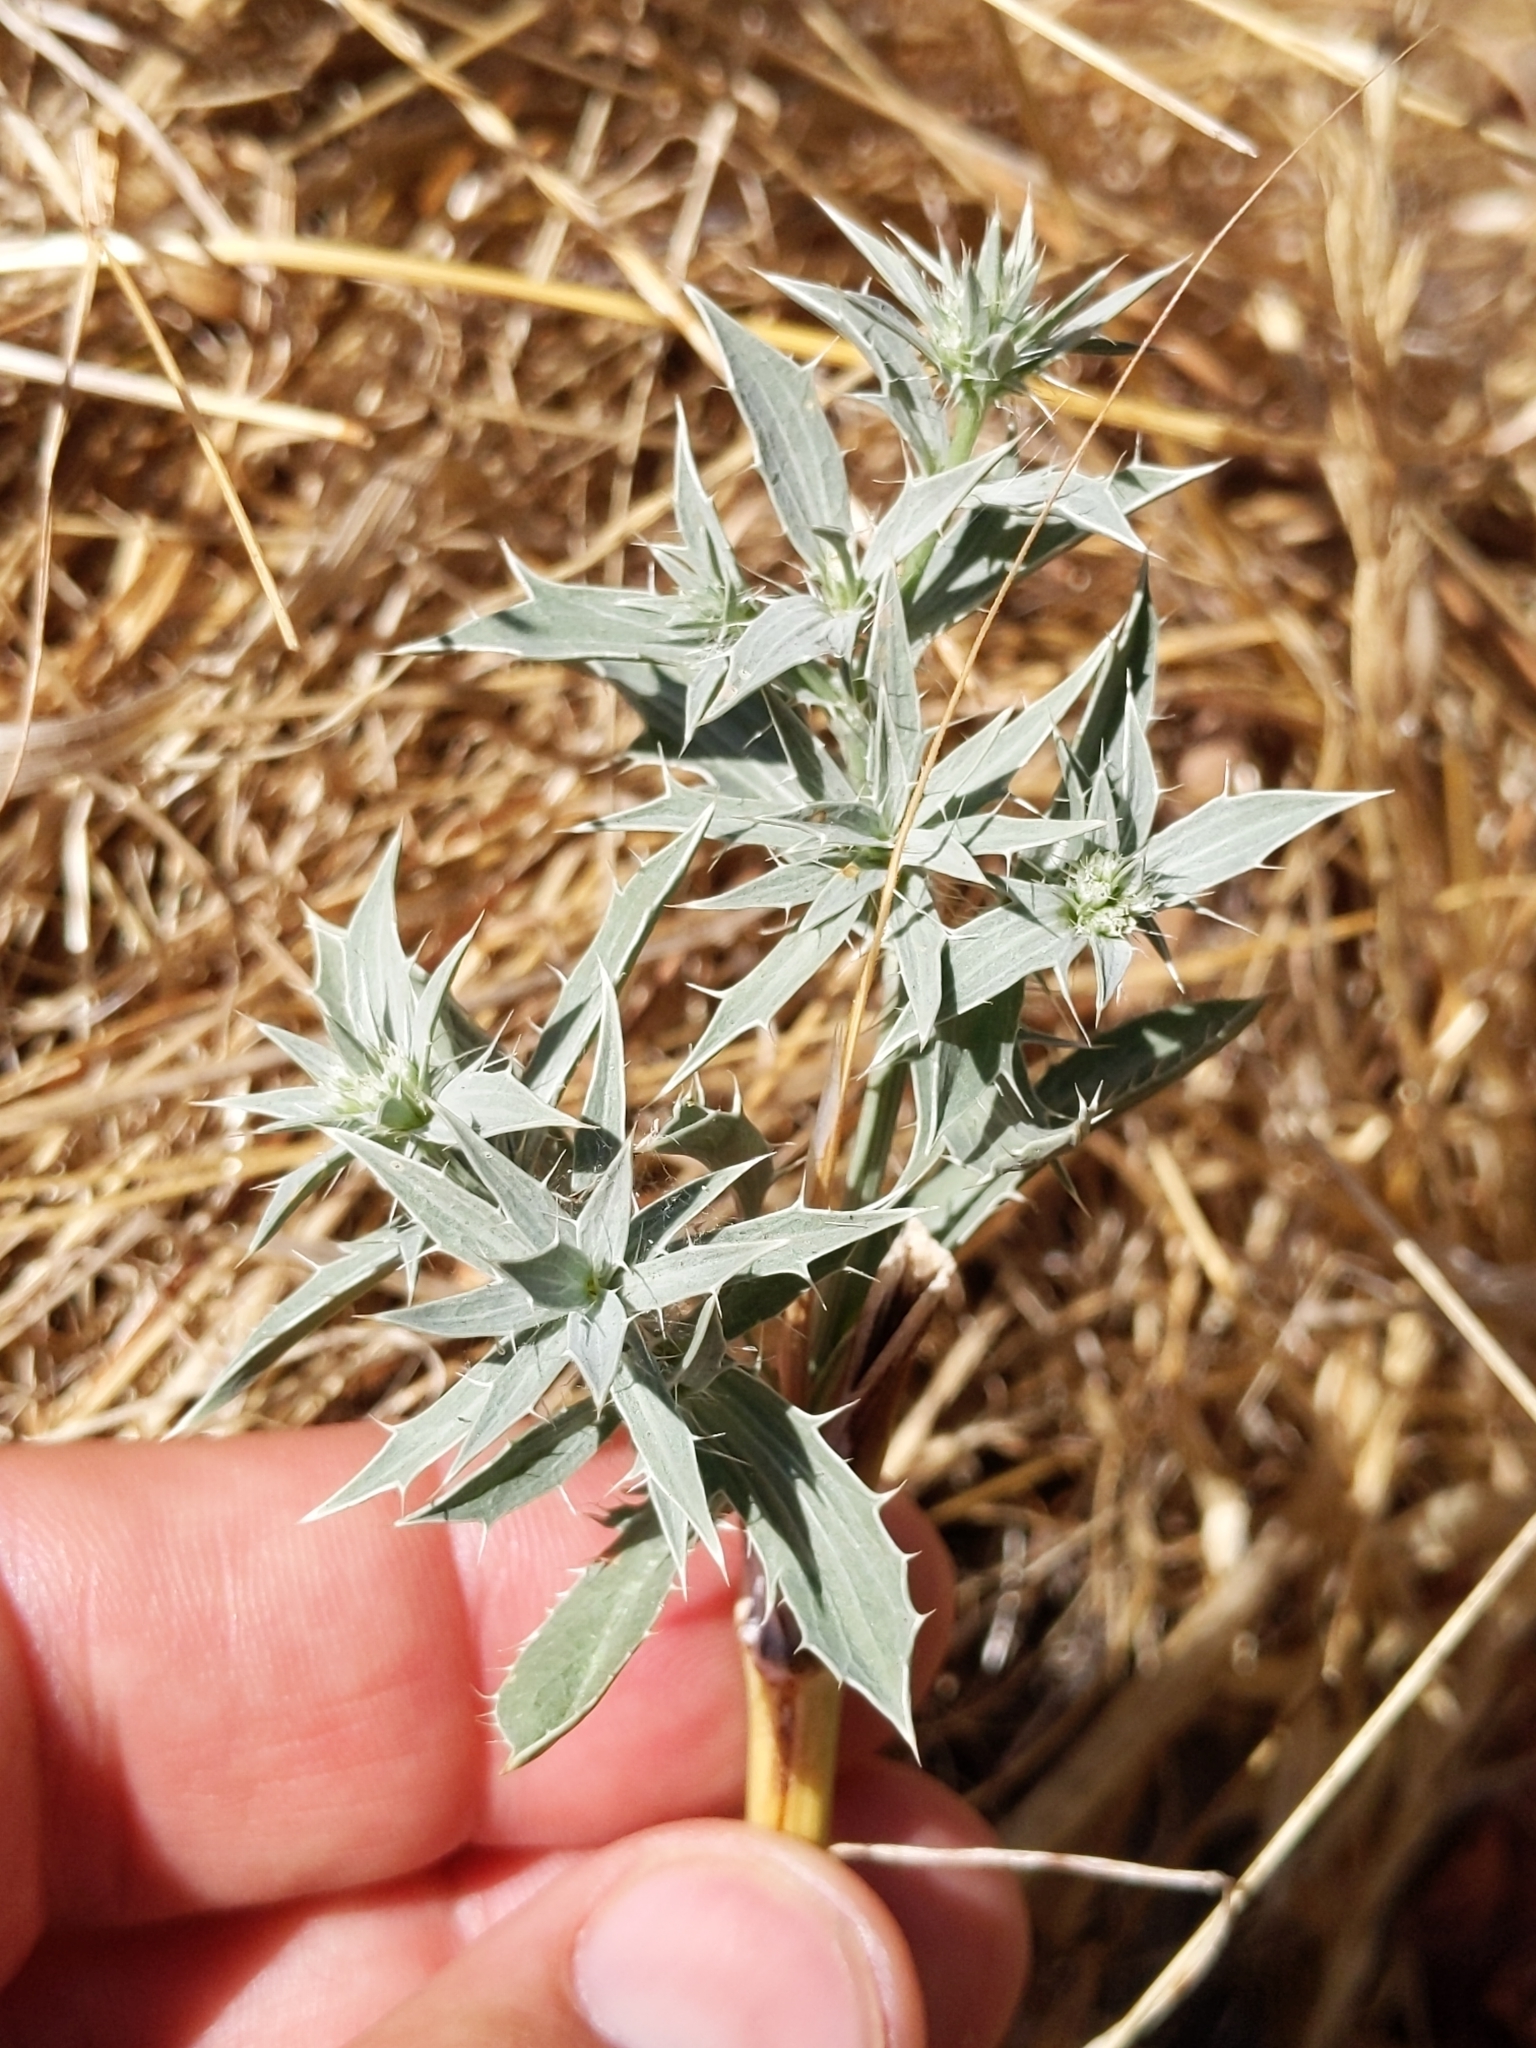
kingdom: Plantae
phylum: Tracheophyta
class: Magnoliopsida
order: Apiales
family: Apiaceae
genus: Eryngium
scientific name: Eryngium aristulatum
